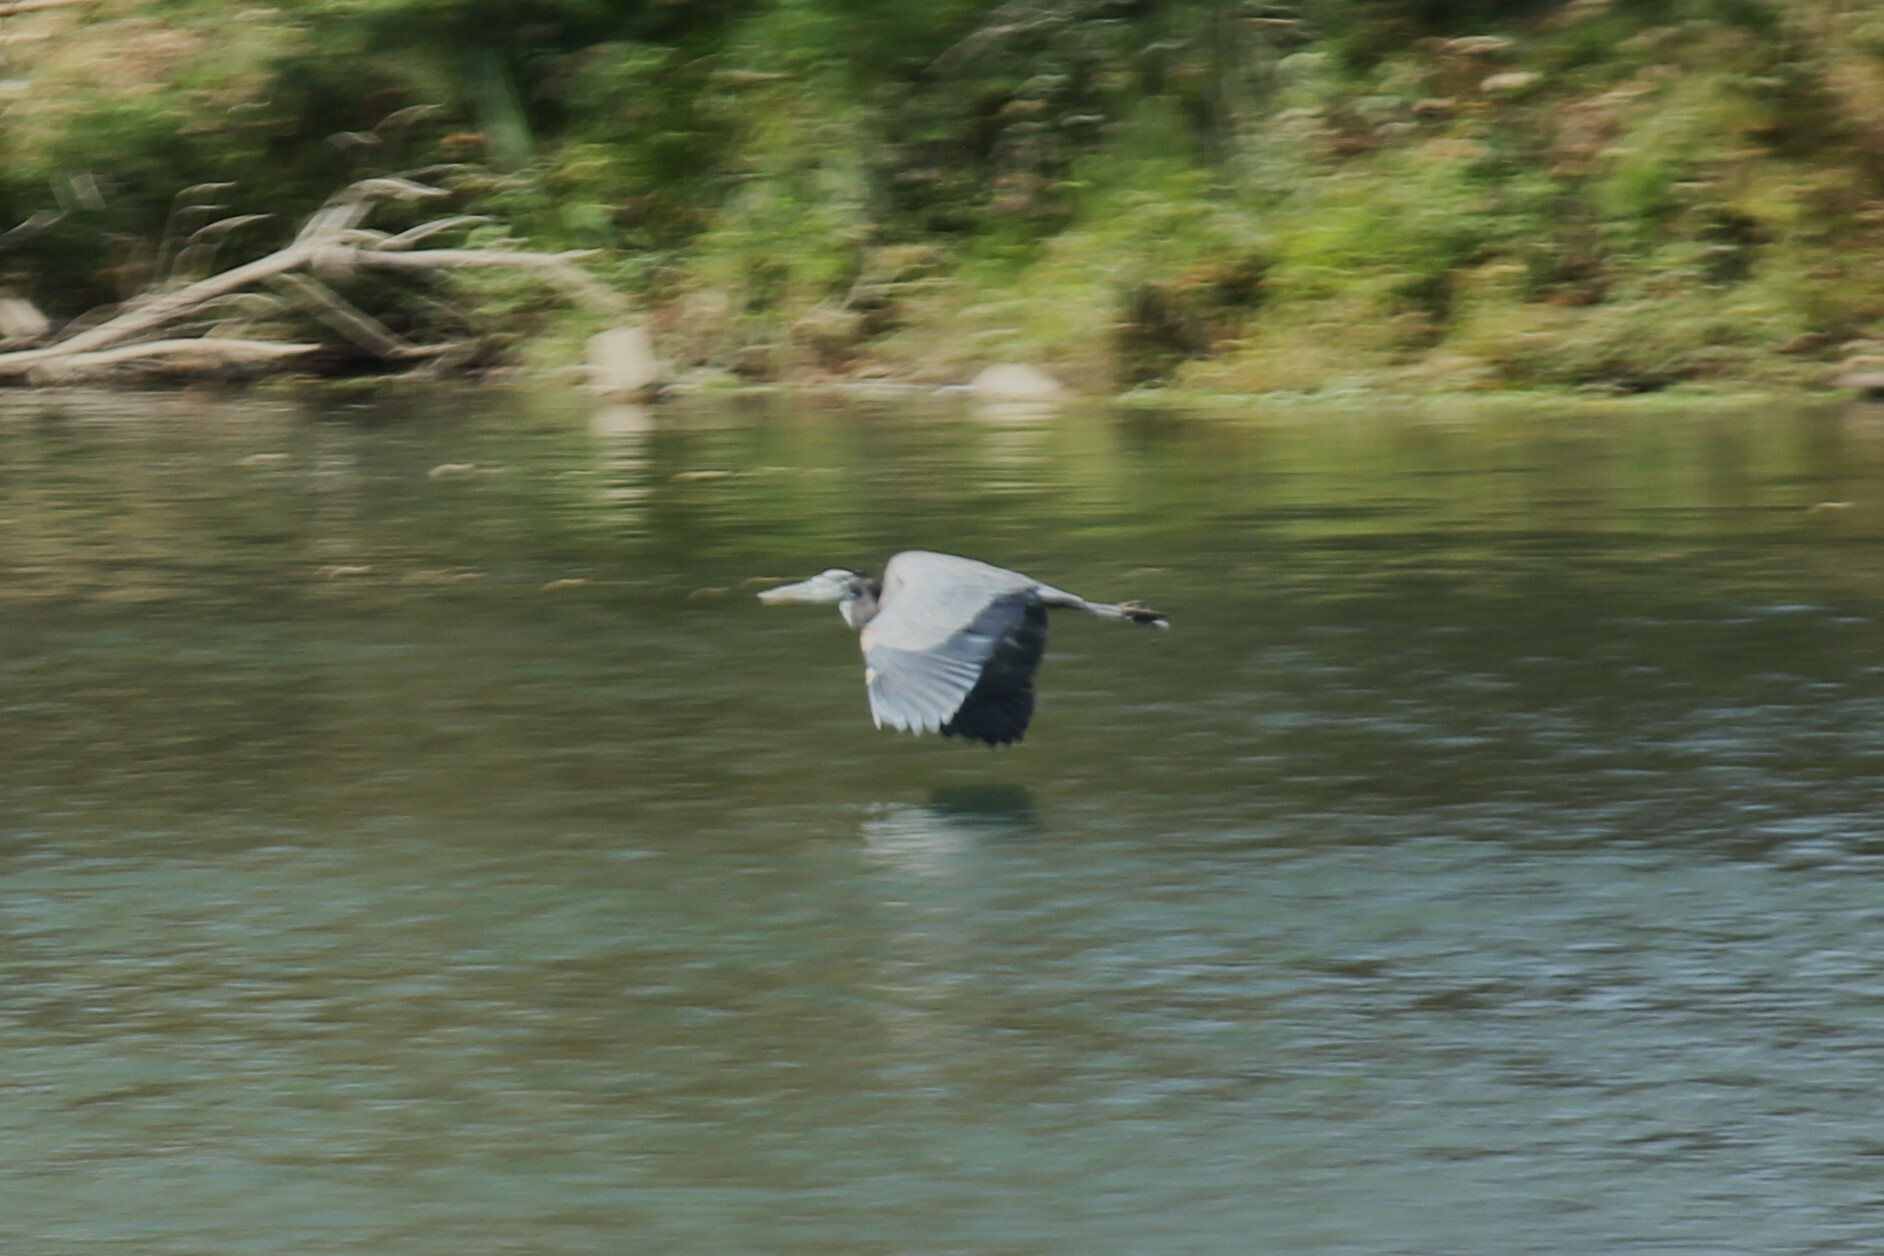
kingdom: Animalia
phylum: Chordata
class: Aves
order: Pelecaniformes
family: Ardeidae
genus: Ardea
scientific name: Ardea herodias
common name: Great blue heron
